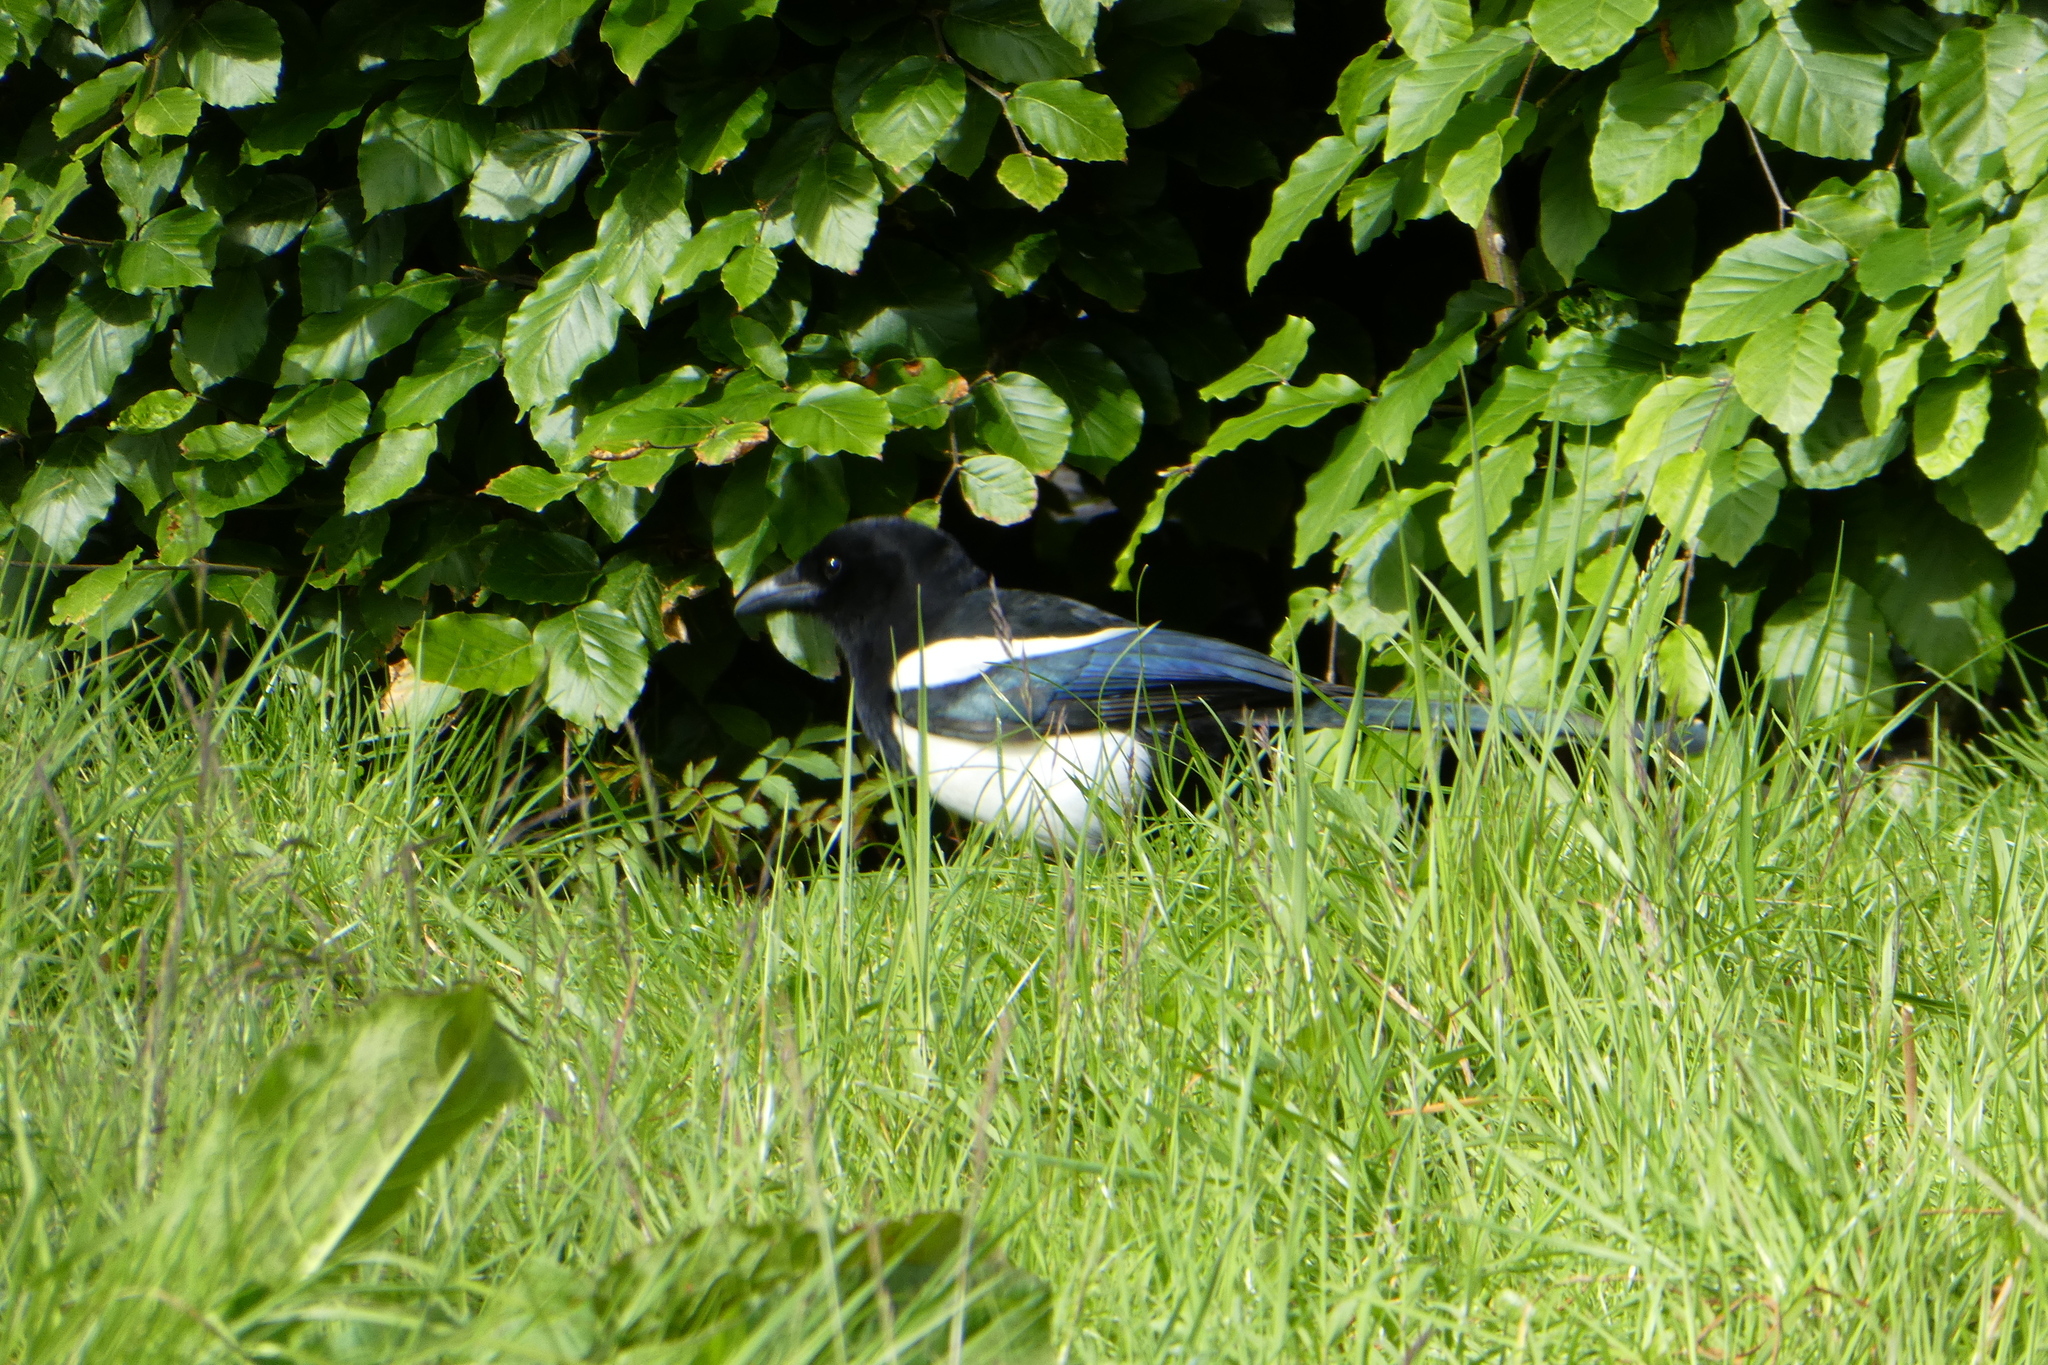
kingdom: Animalia
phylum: Chordata
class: Aves
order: Passeriformes
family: Corvidae
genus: Pica
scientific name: Pica pica
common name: Eurasian magpie
